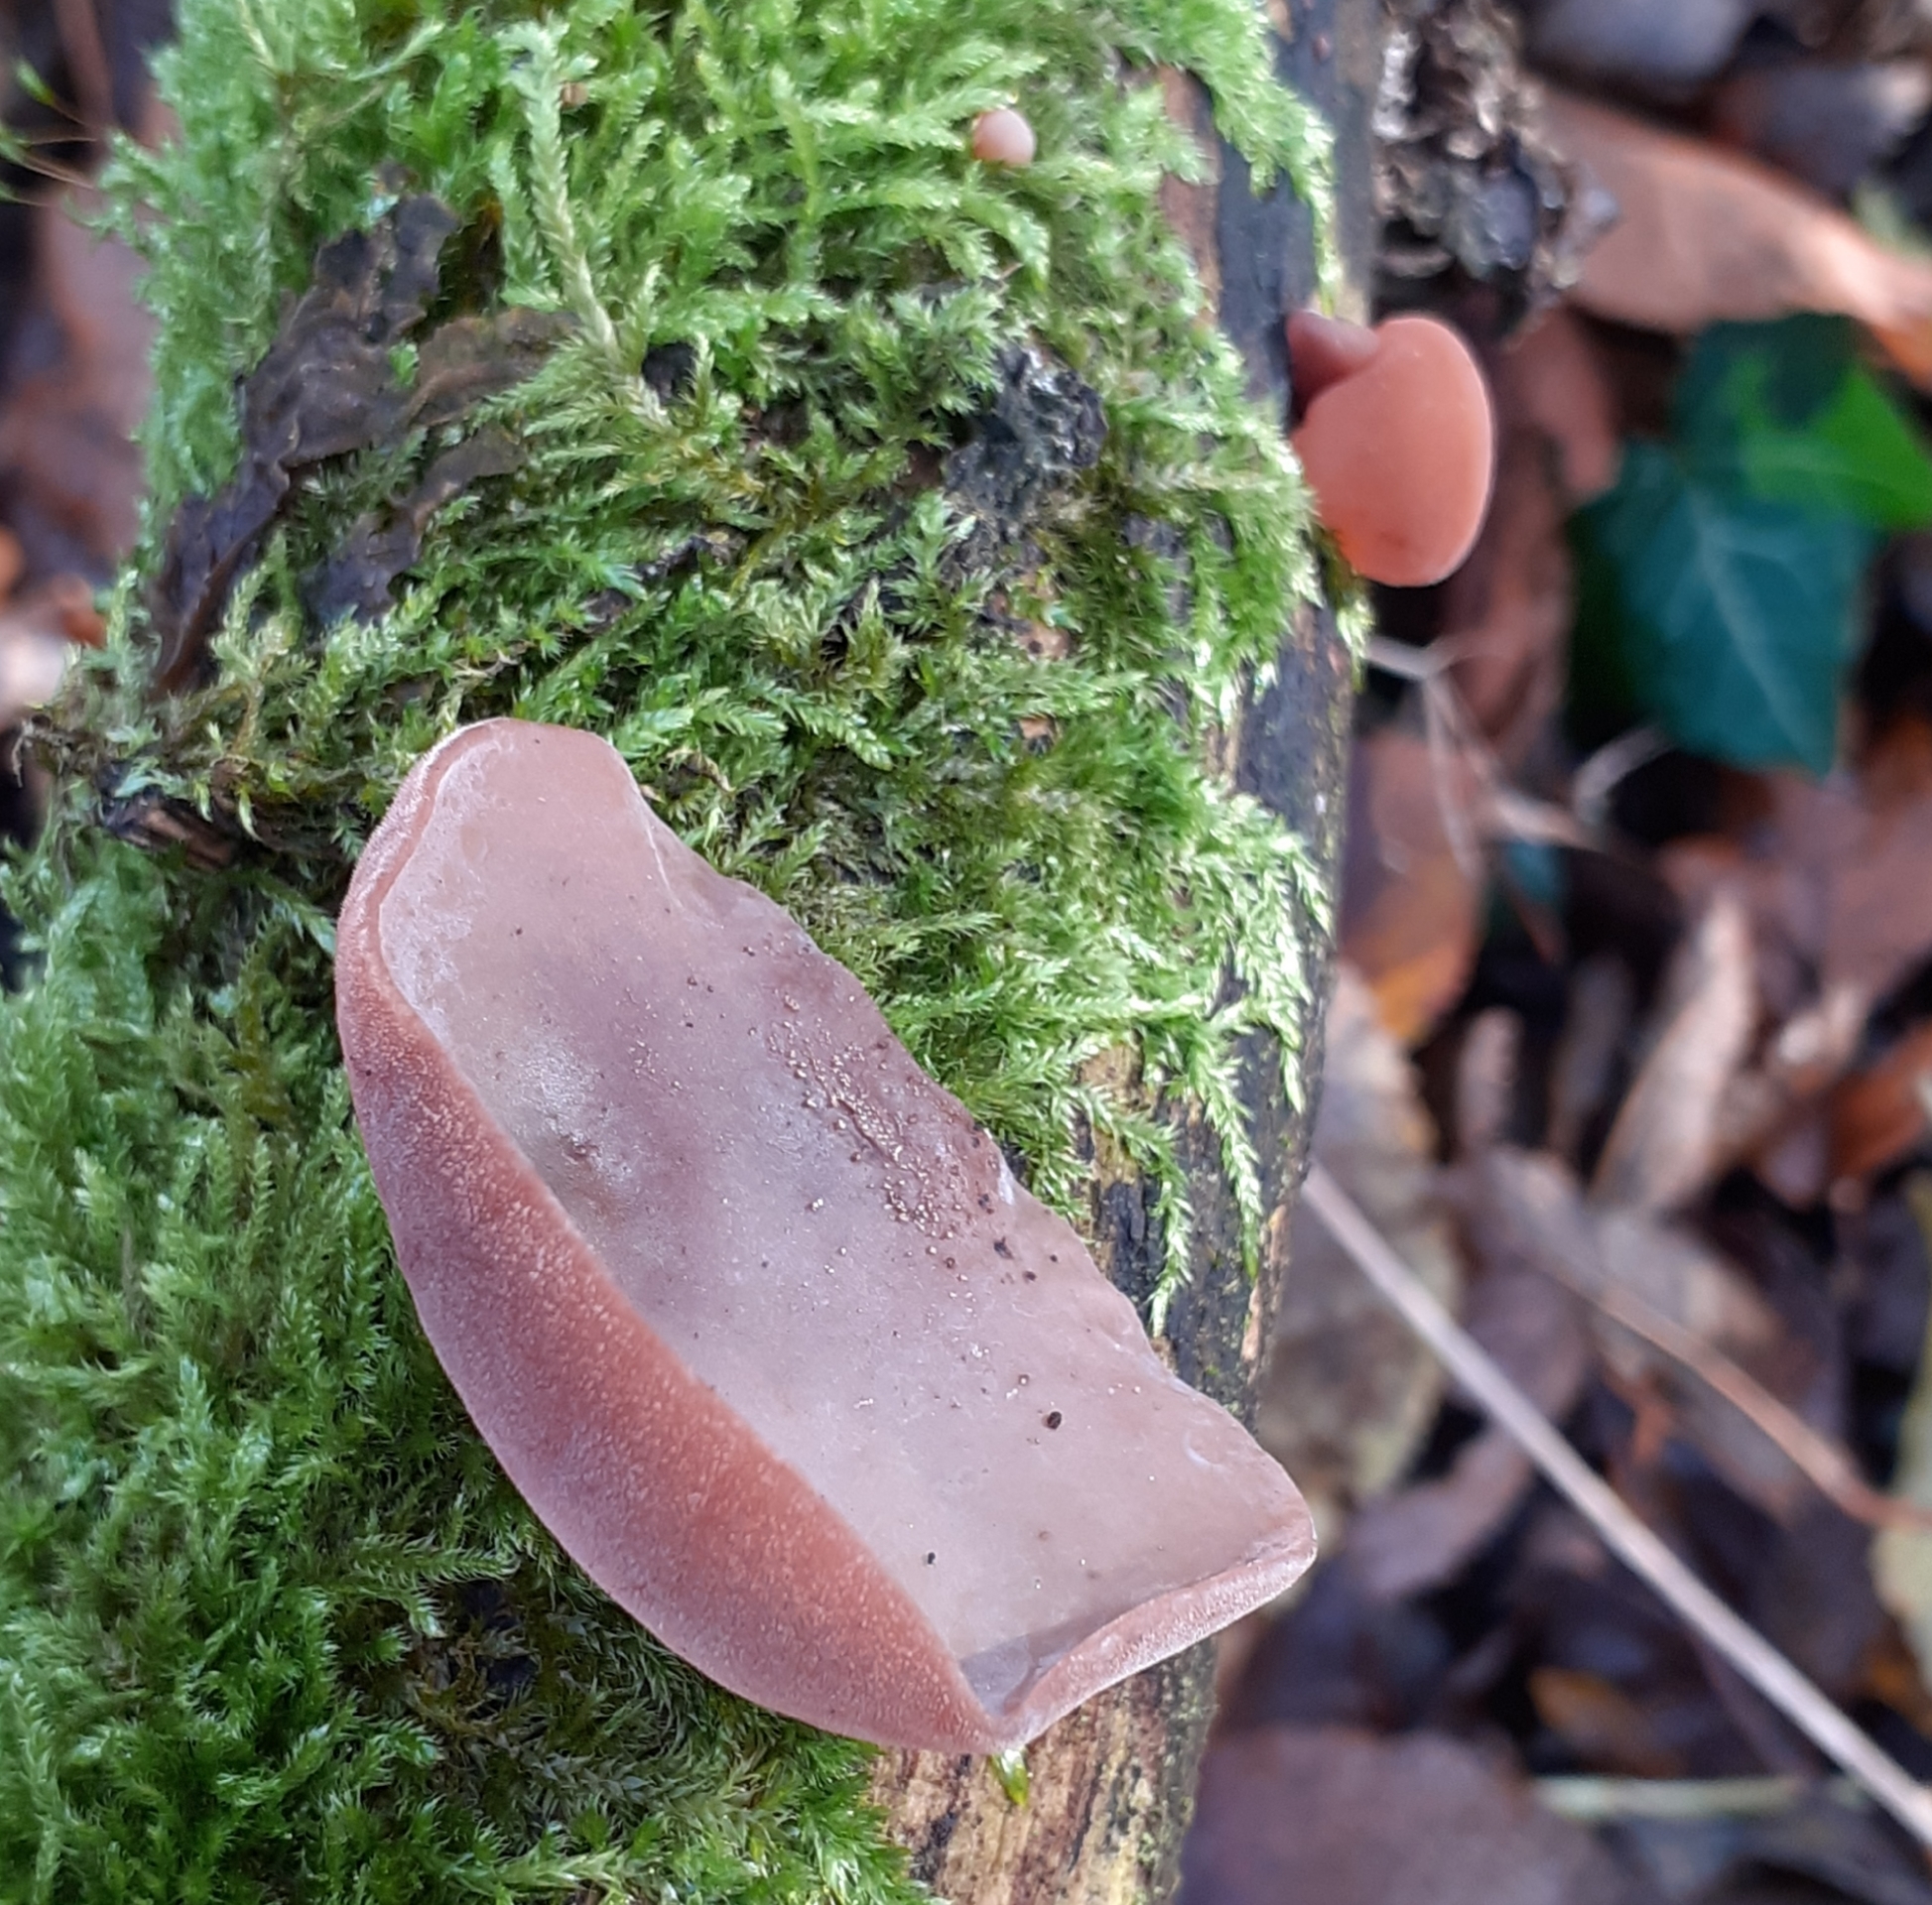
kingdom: Fungi
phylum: Basidiomycota
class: Agaricomycetes
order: Auriculariales
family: Auriculariaceae
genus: Auricularia
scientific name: Auricularia auricula-judae
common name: Jelly ear
